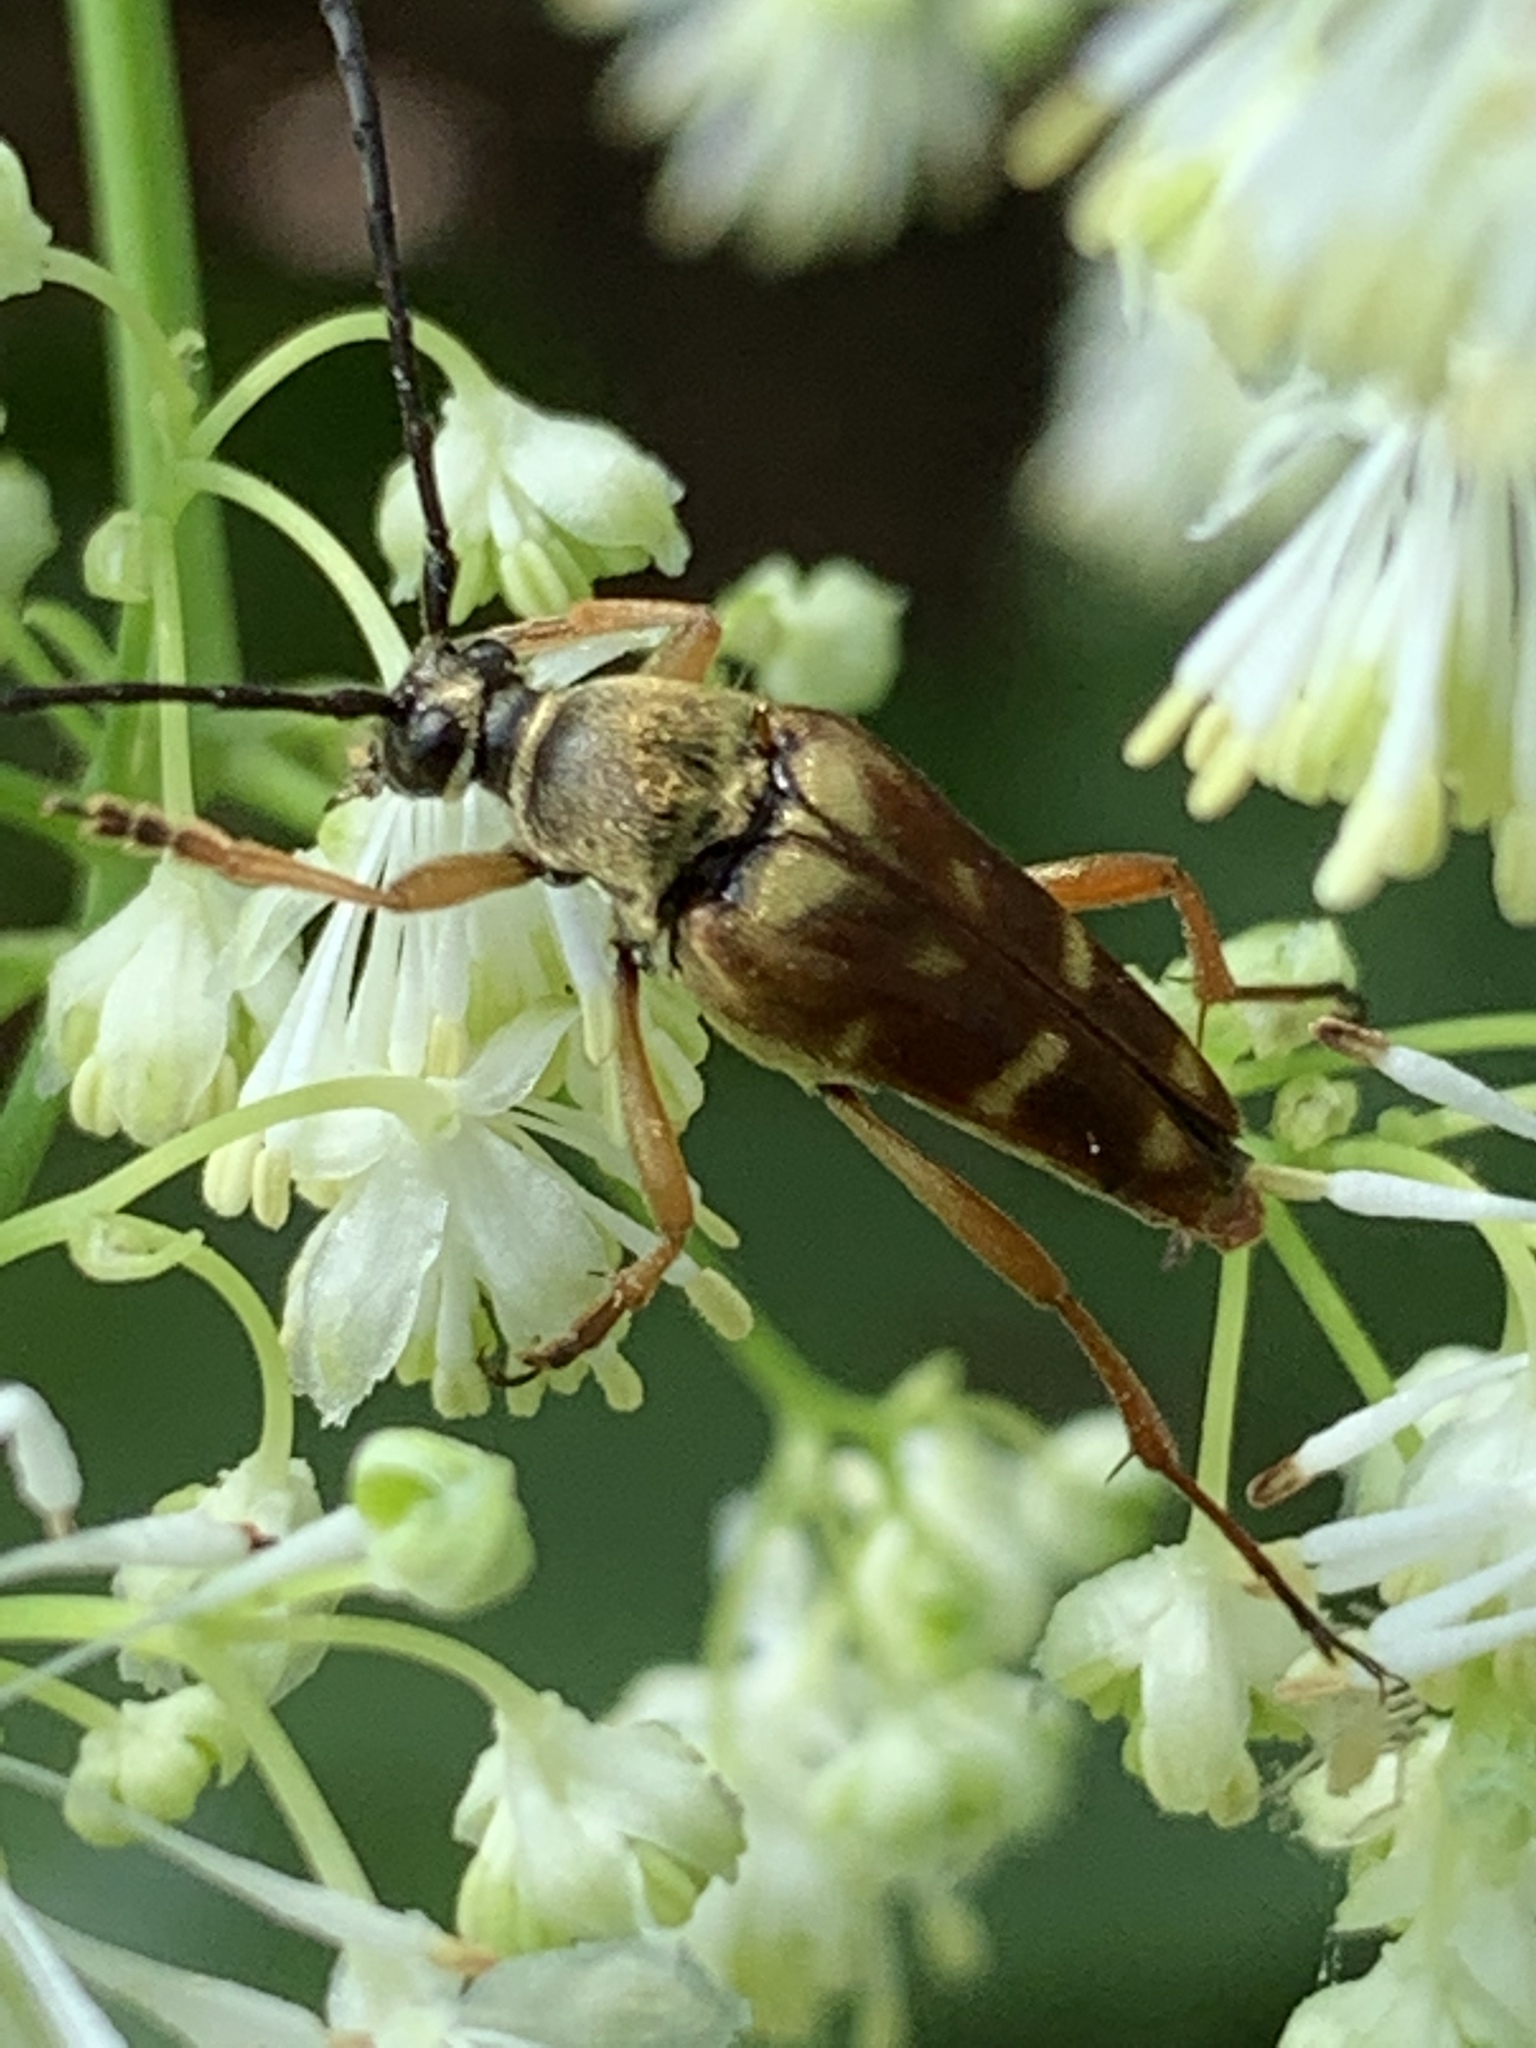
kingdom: Animalia
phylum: Arthropoda
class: Insecta
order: Coleoptera
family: Cerambycidae
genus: Typocerus
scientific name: Typocerus velutinus
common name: Banded longhorn beetle
